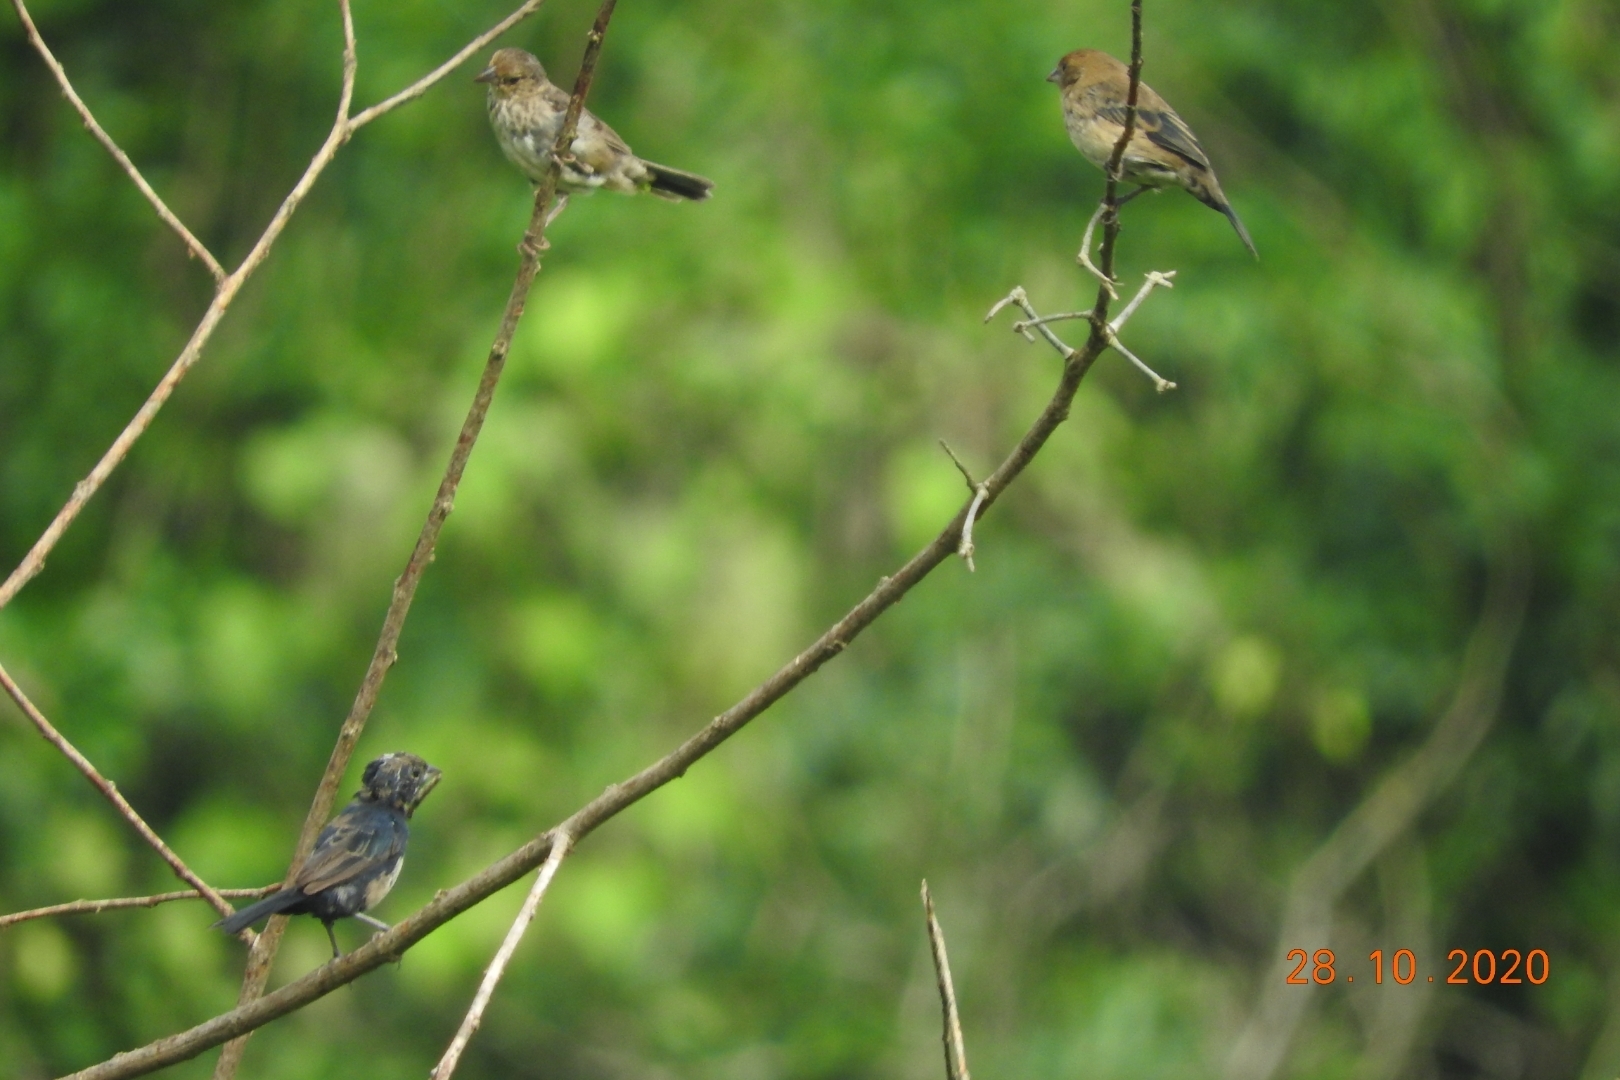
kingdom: Animalia
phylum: Chordata
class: Aves
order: Passeriformes
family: Thraupidae
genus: Volatinia
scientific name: Volatinia jacarina
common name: Blue-black grassquit
